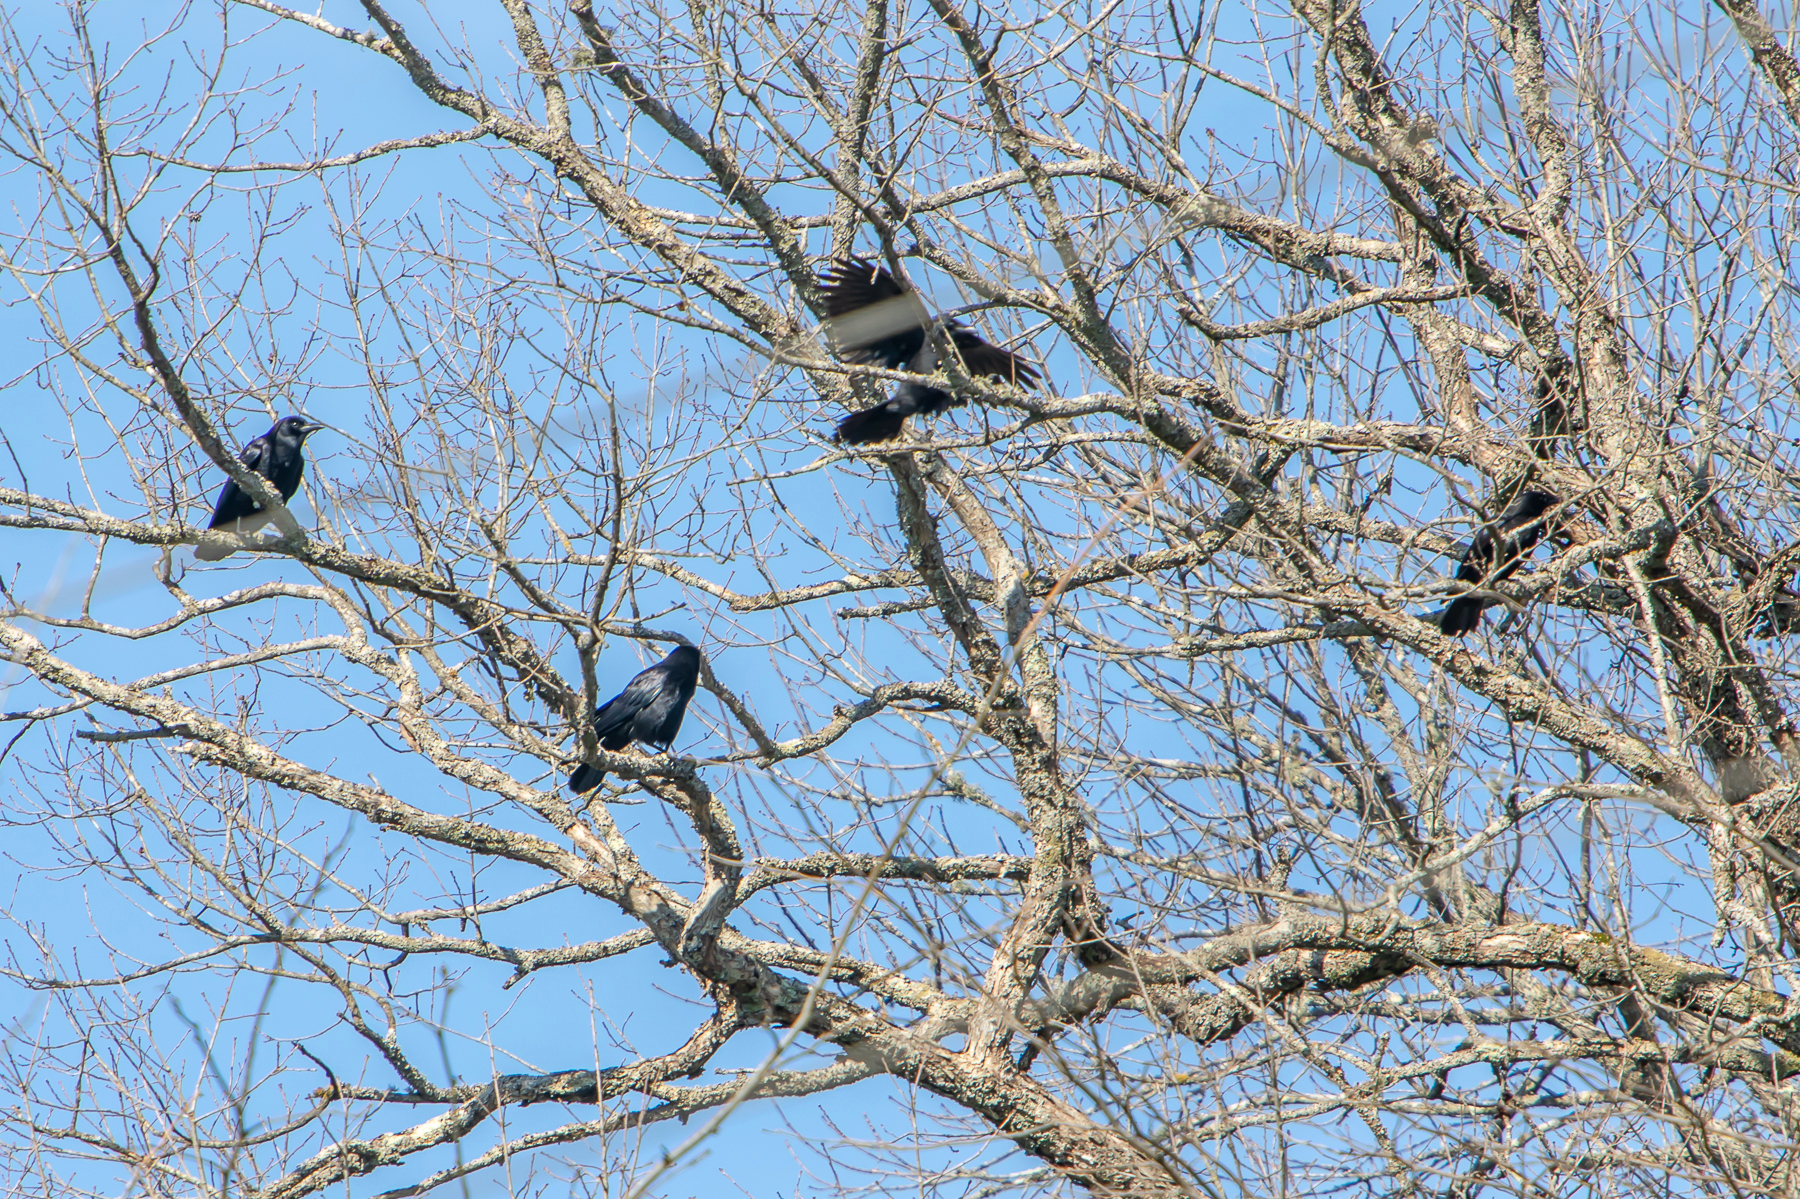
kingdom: Animalia
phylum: Chordata
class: Aves
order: Passeriformes
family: Corvidae
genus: Corvus
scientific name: Corvus brachyrhynchos
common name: American crow
